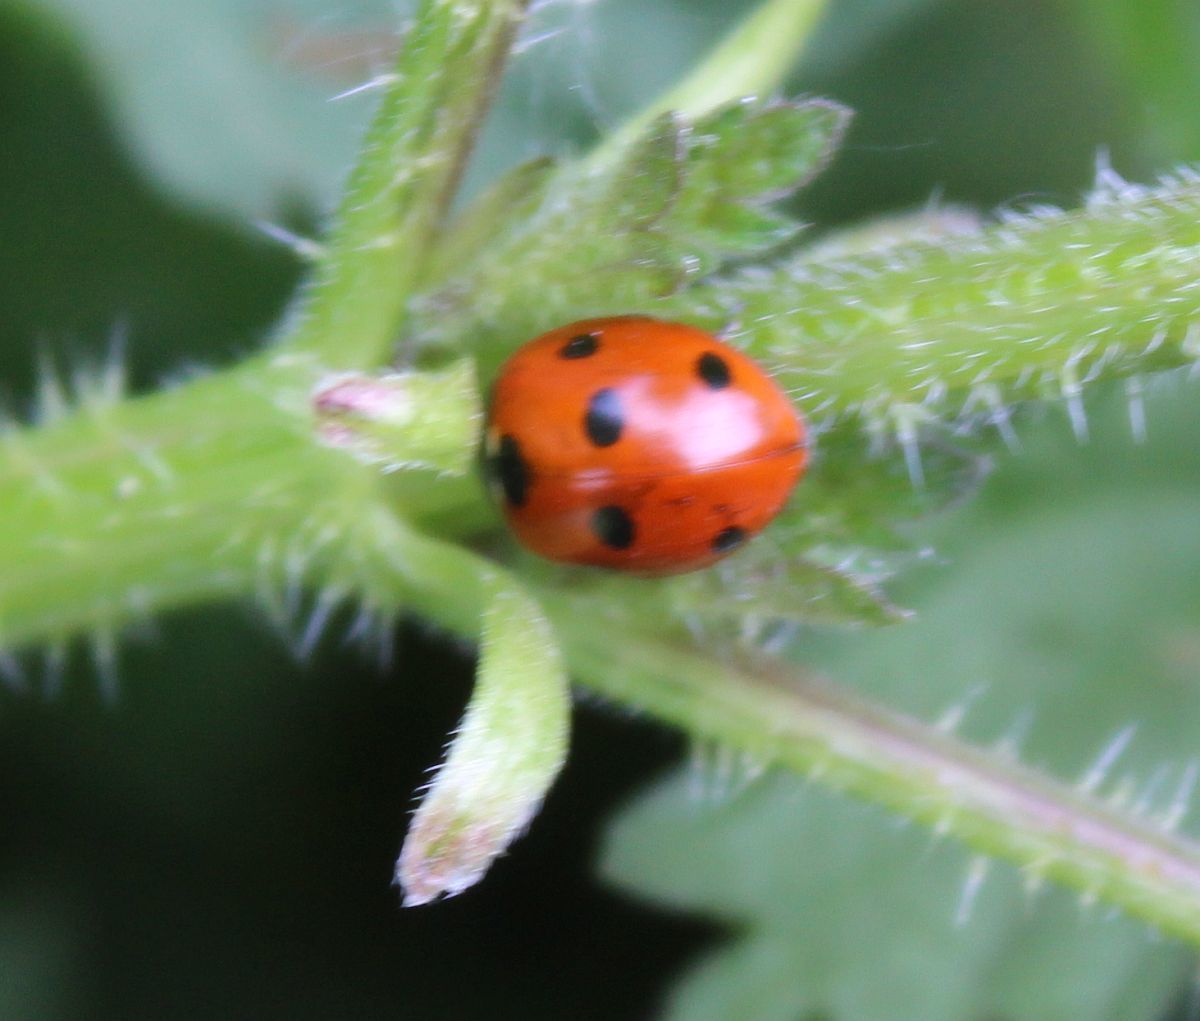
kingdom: Animalia
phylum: Arthropoda
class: Insecta
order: Coleoptera
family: Coccinellidae
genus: Coccinella
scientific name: Coccinella septempunctata
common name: Sevenspotted lady beetle
